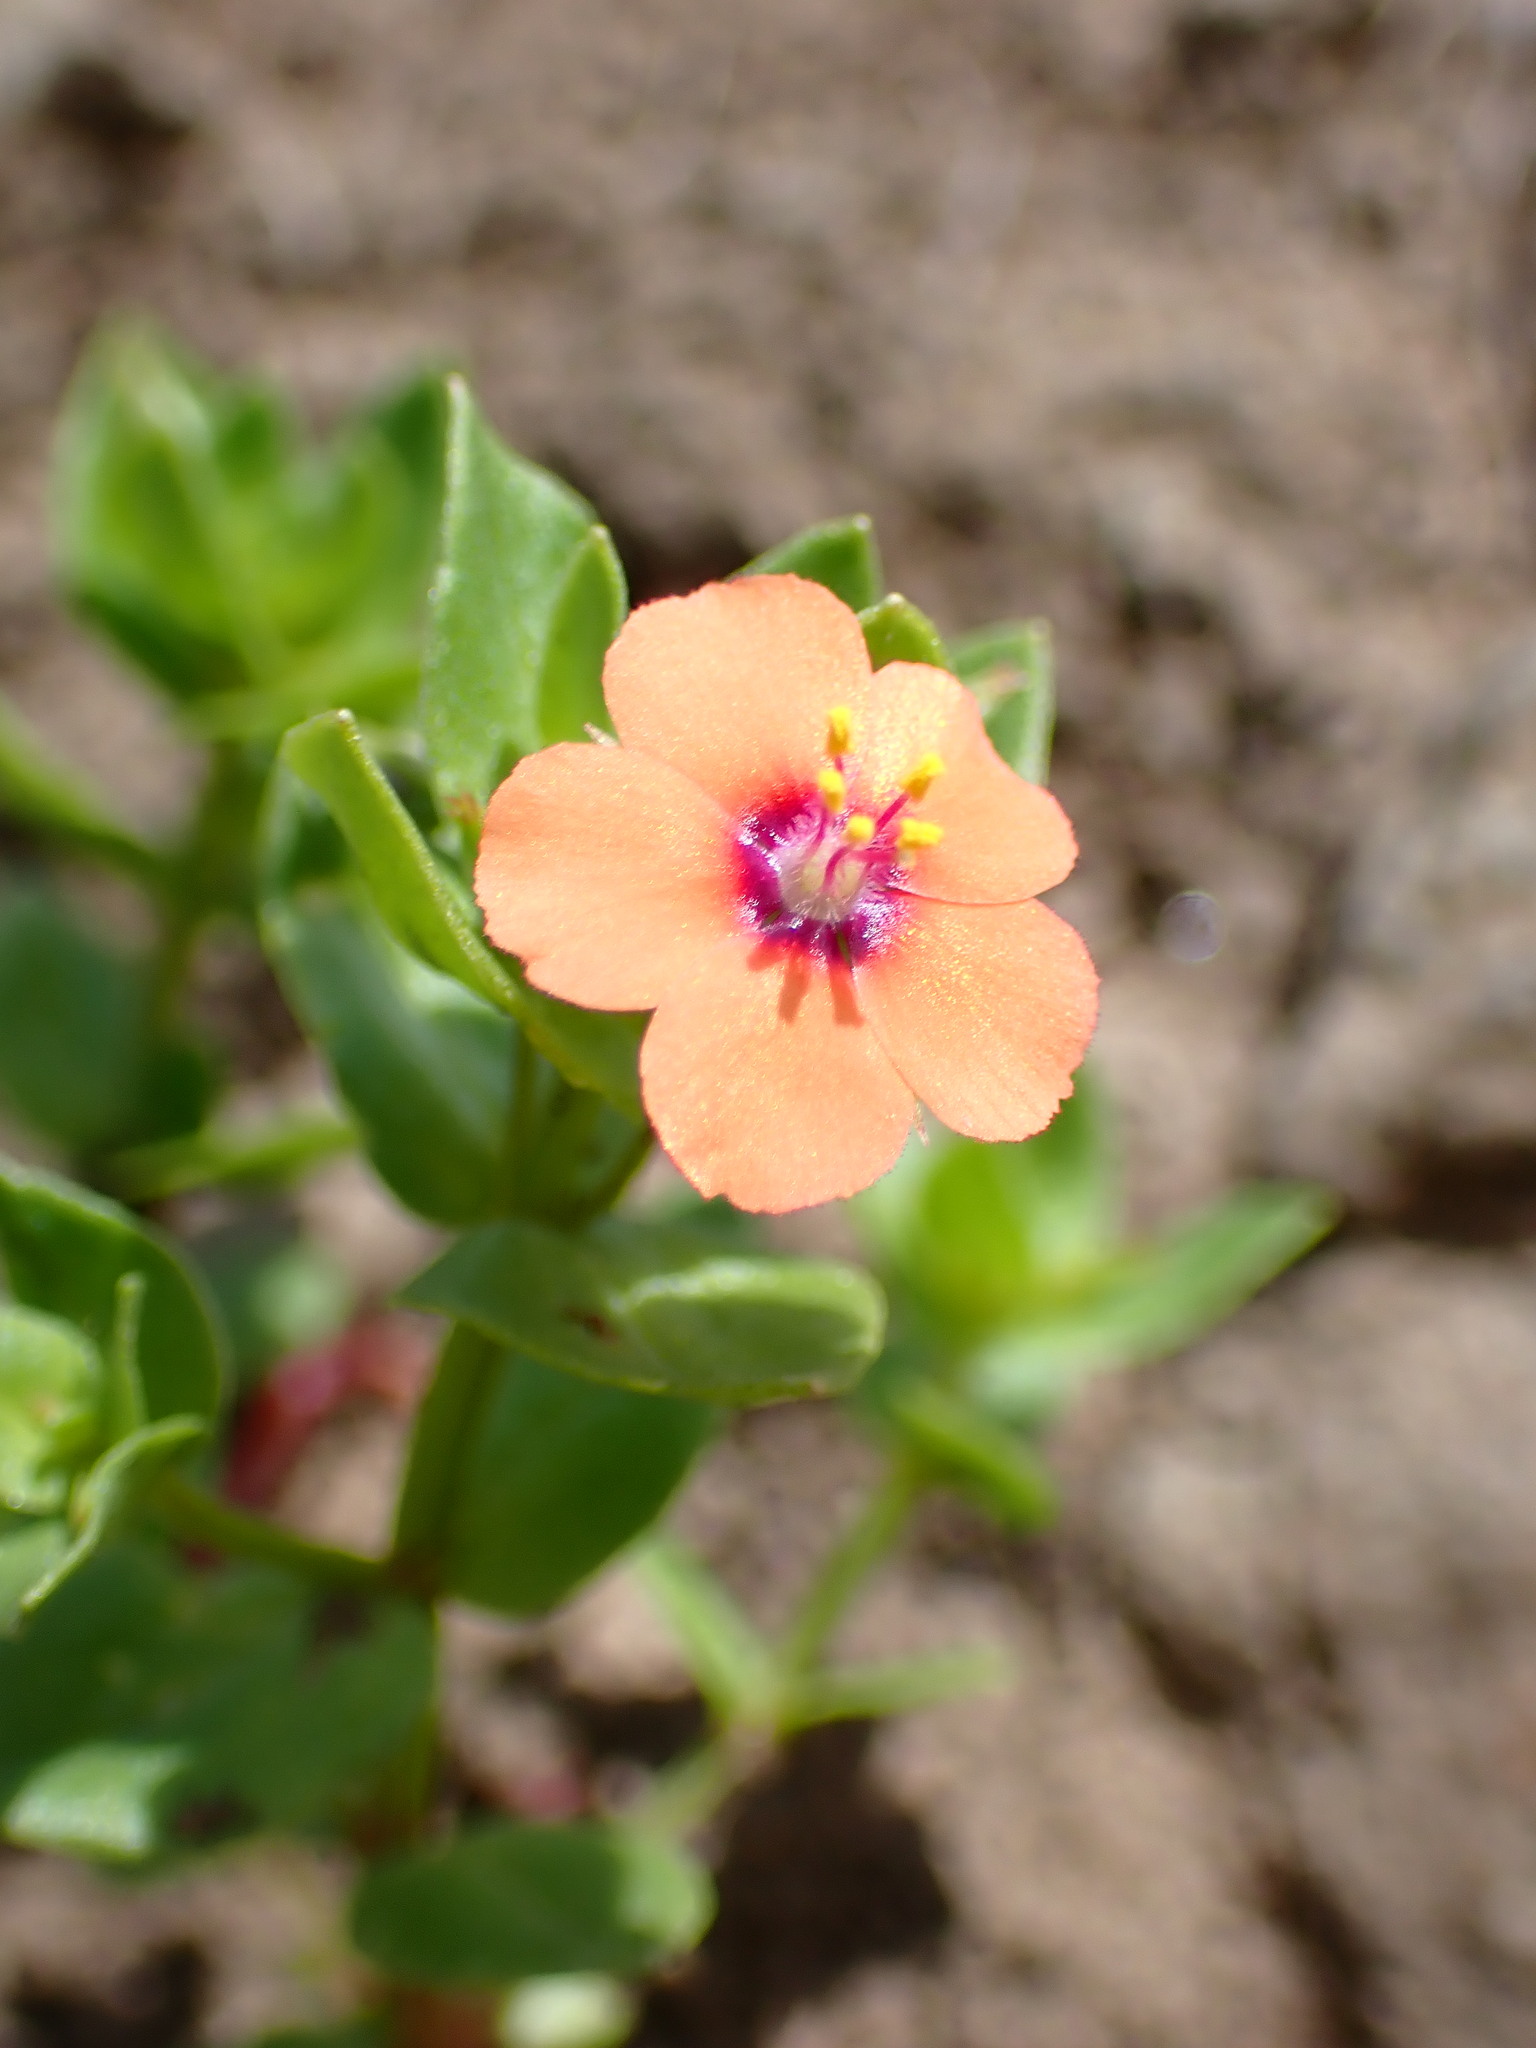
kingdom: Plantae
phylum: Tracheophyta
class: Magnoliopsida
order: Ericales
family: Primulaceae
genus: Lysimachia
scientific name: Lysimachia arvensis
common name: Scarlet pimpernel
